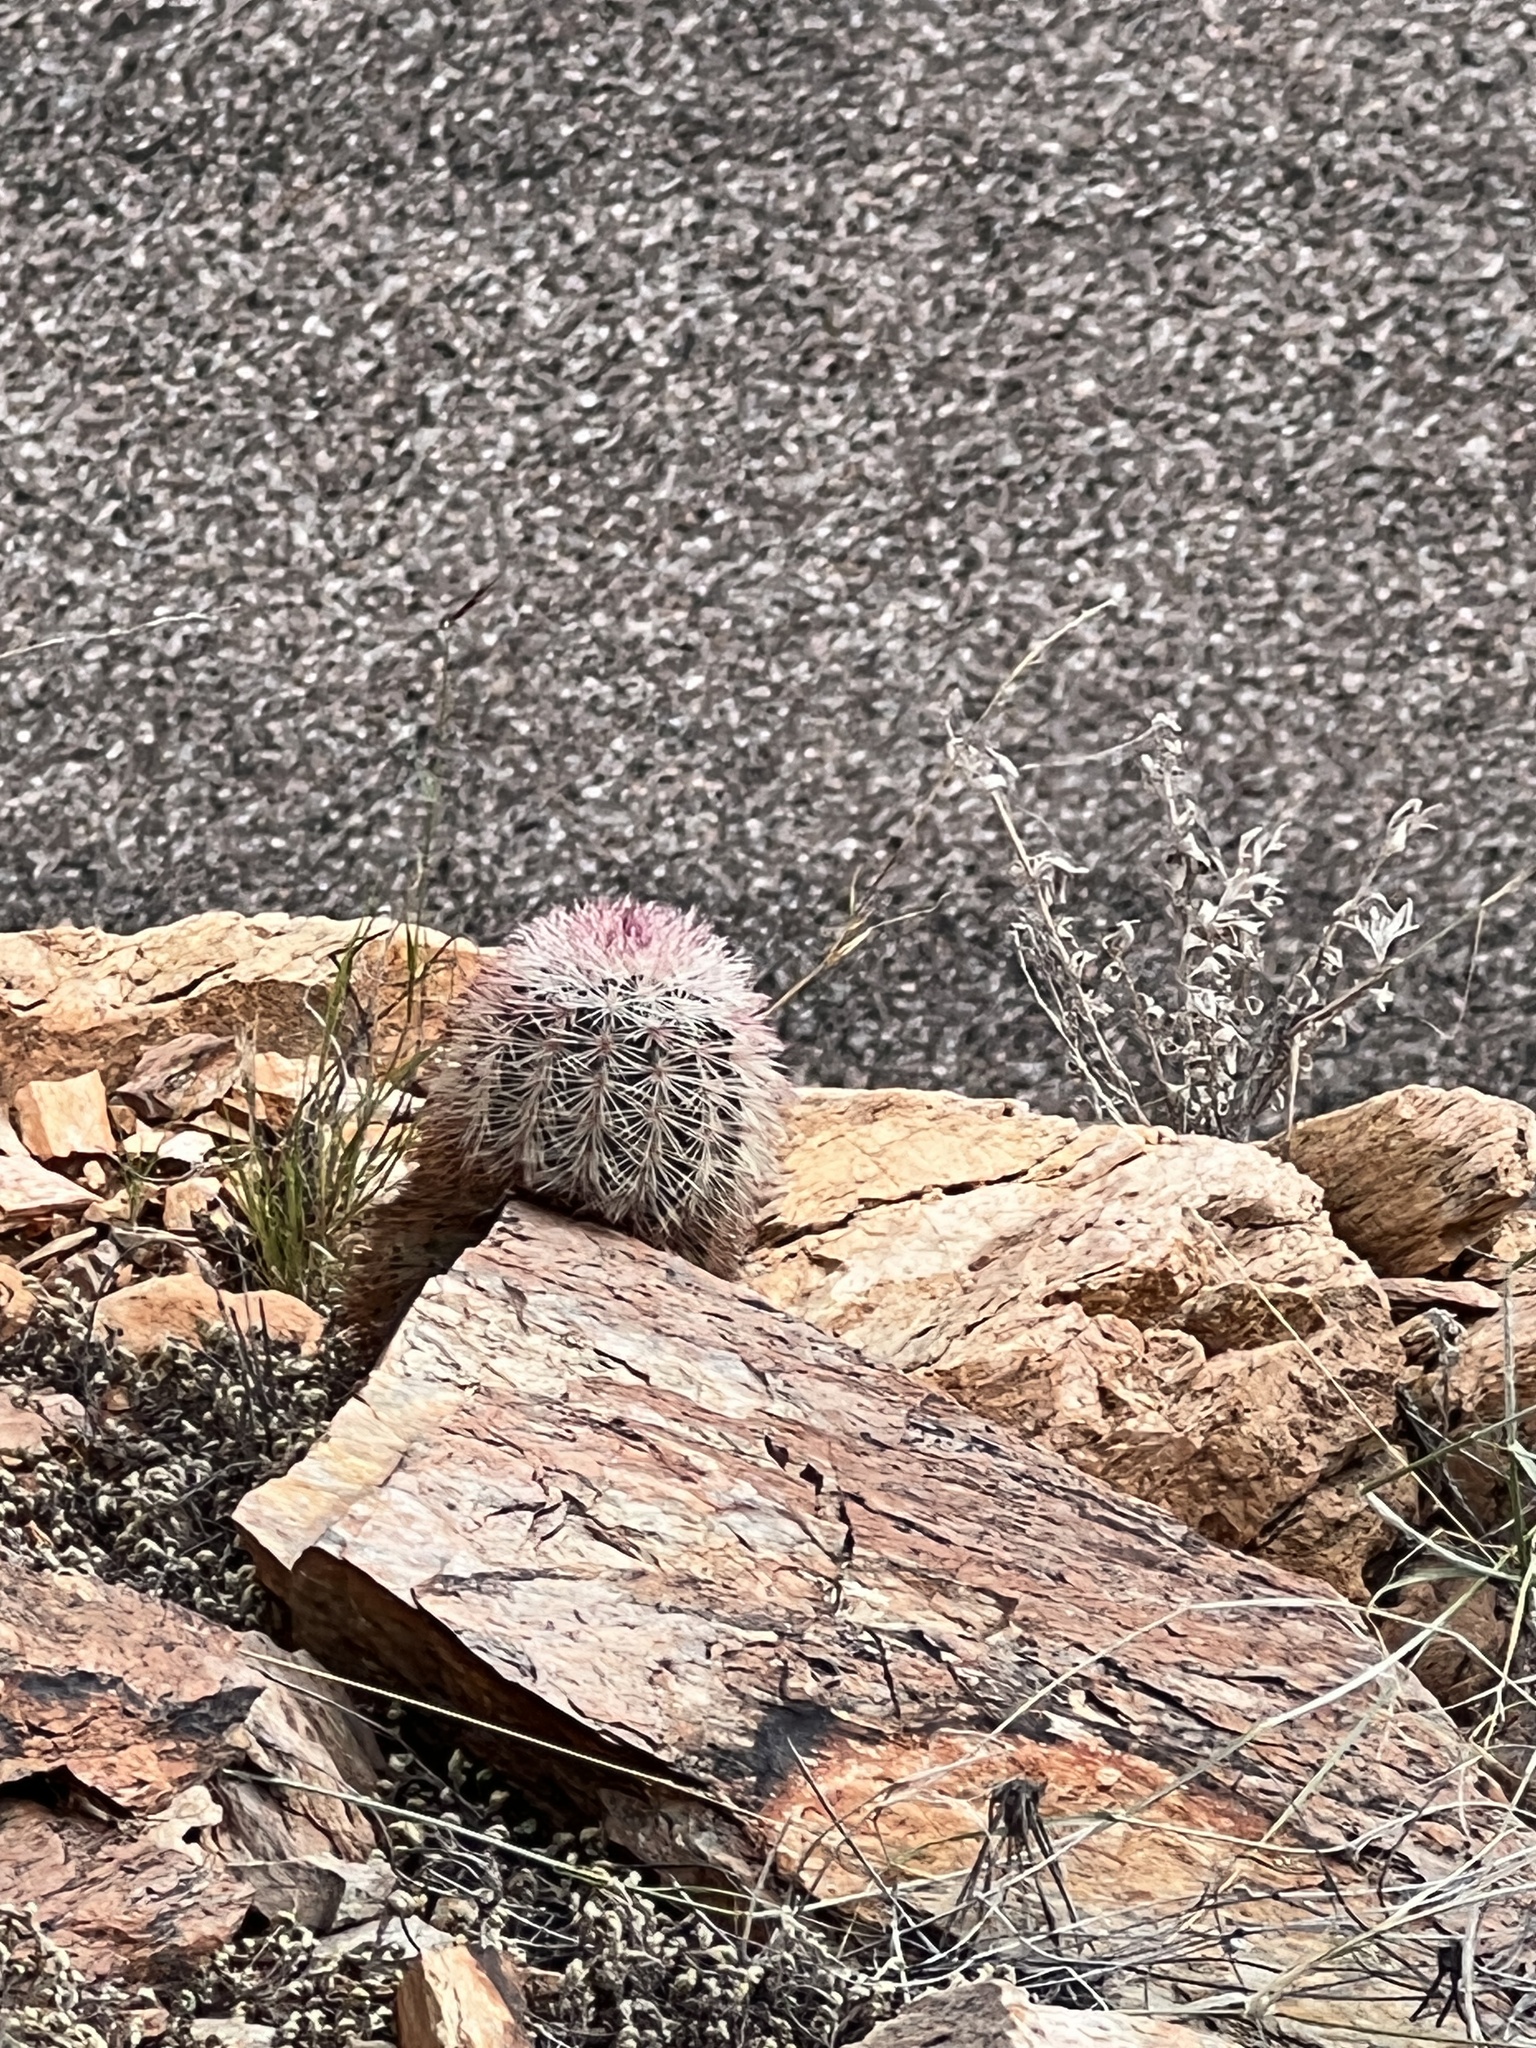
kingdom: Plantae
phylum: Tracheophyta
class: Magnoliopsida
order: Caryophyllales
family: Cactaceae
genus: Echinocereus
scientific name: Echinocereus dasyacanthus
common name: Spiny hedgehog cactus
